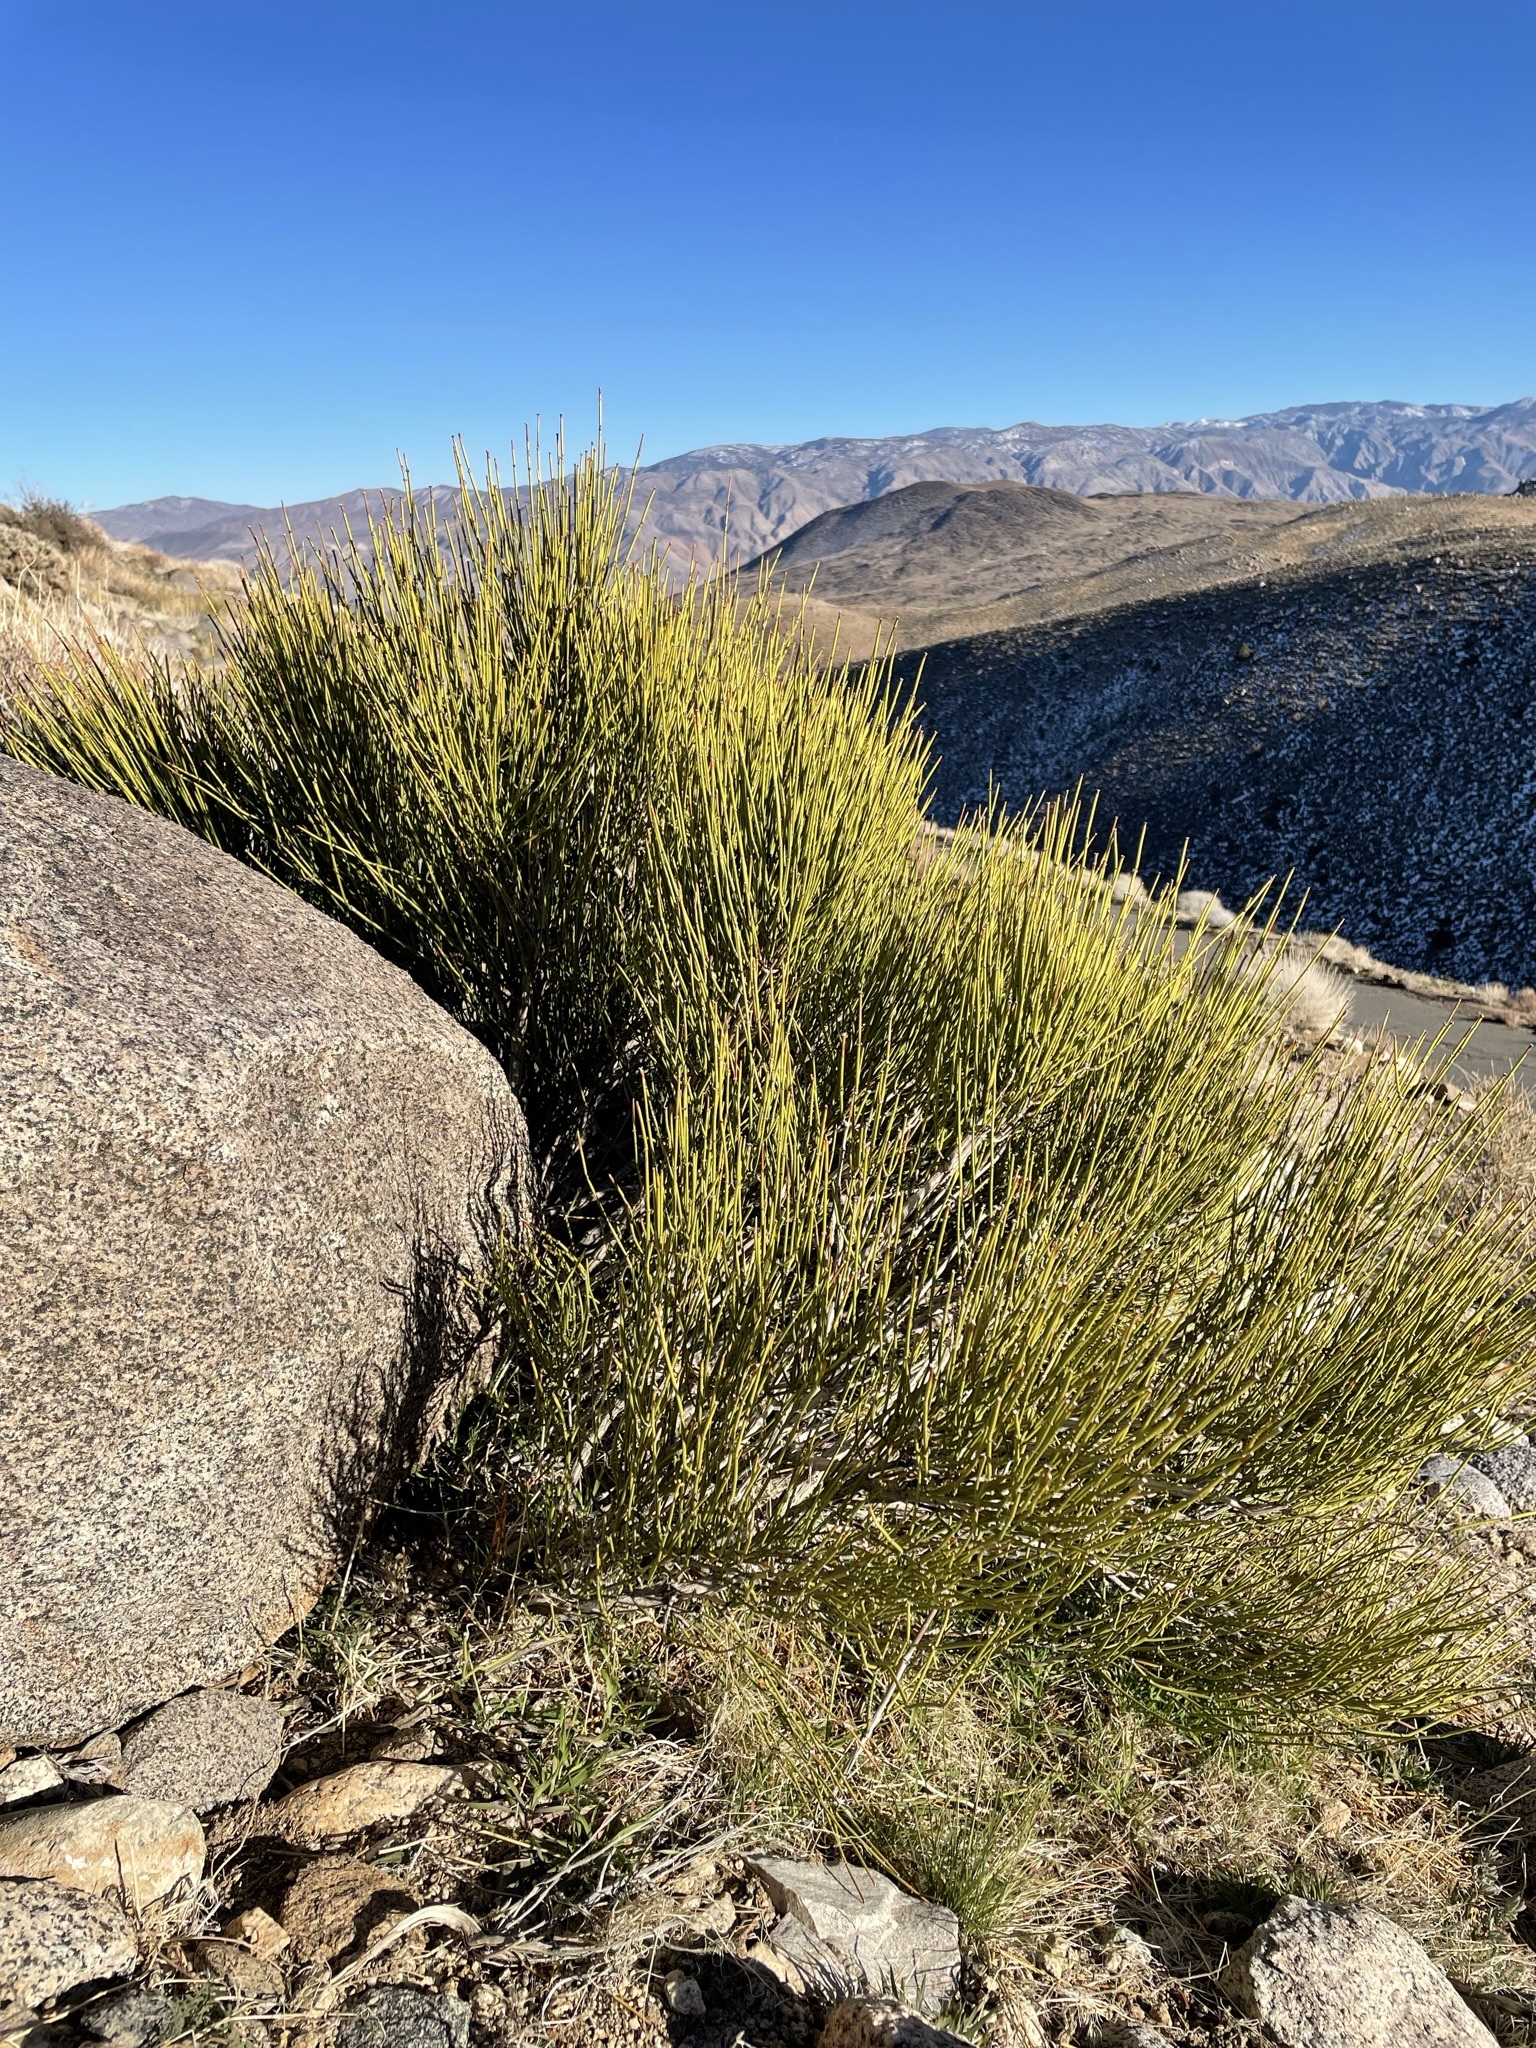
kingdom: Plantae
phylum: Tracheophyta
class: Gnetopsida
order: Ephedrales
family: Ephedraceae
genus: Ephedra
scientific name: Ephedra viridis
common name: Green ephedra
